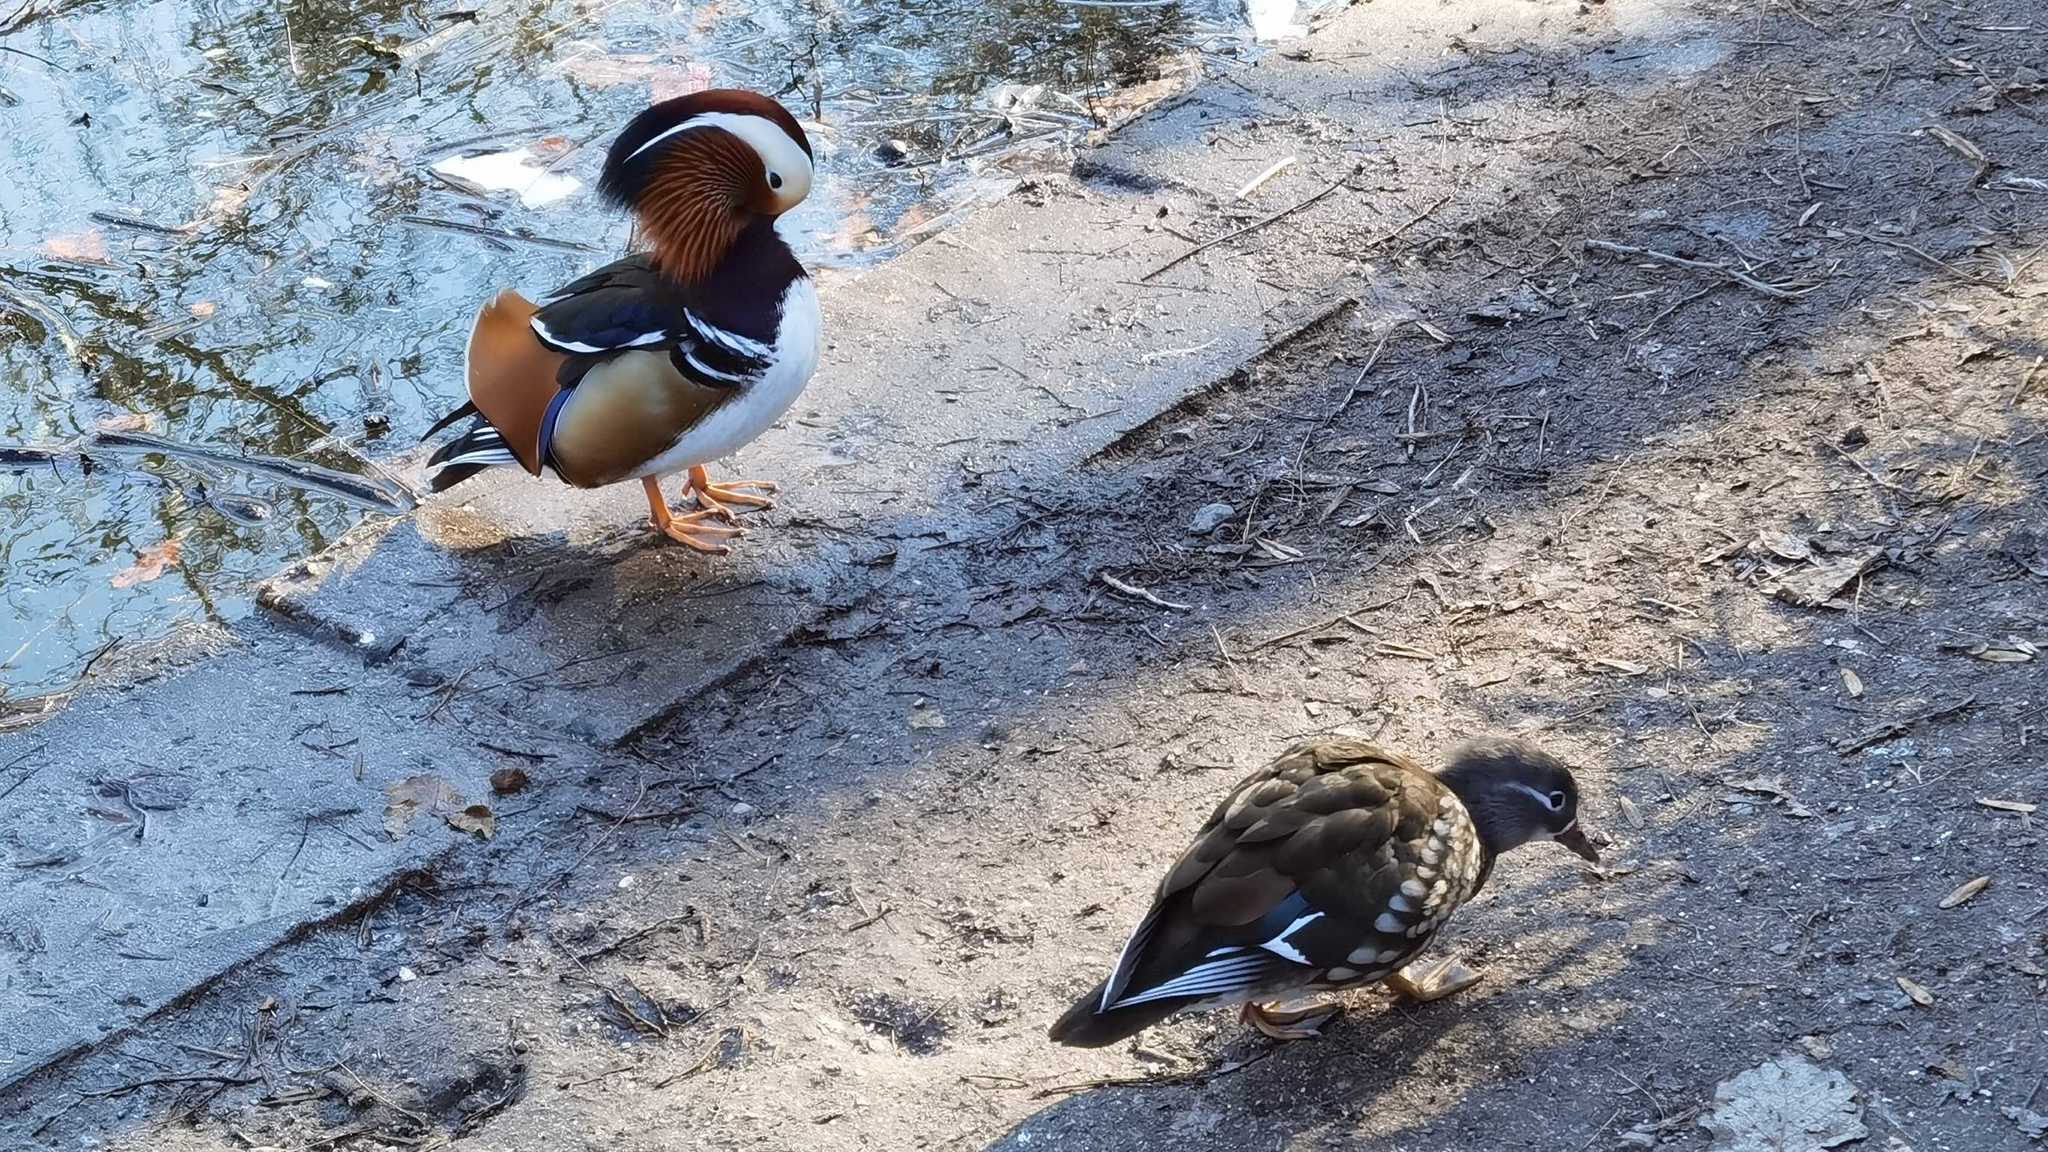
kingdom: Animalia
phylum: Chordata
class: Aves
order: Anseriformes
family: Anatidae
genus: Aix
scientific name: Aix galericulata
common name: Mandarin duck
